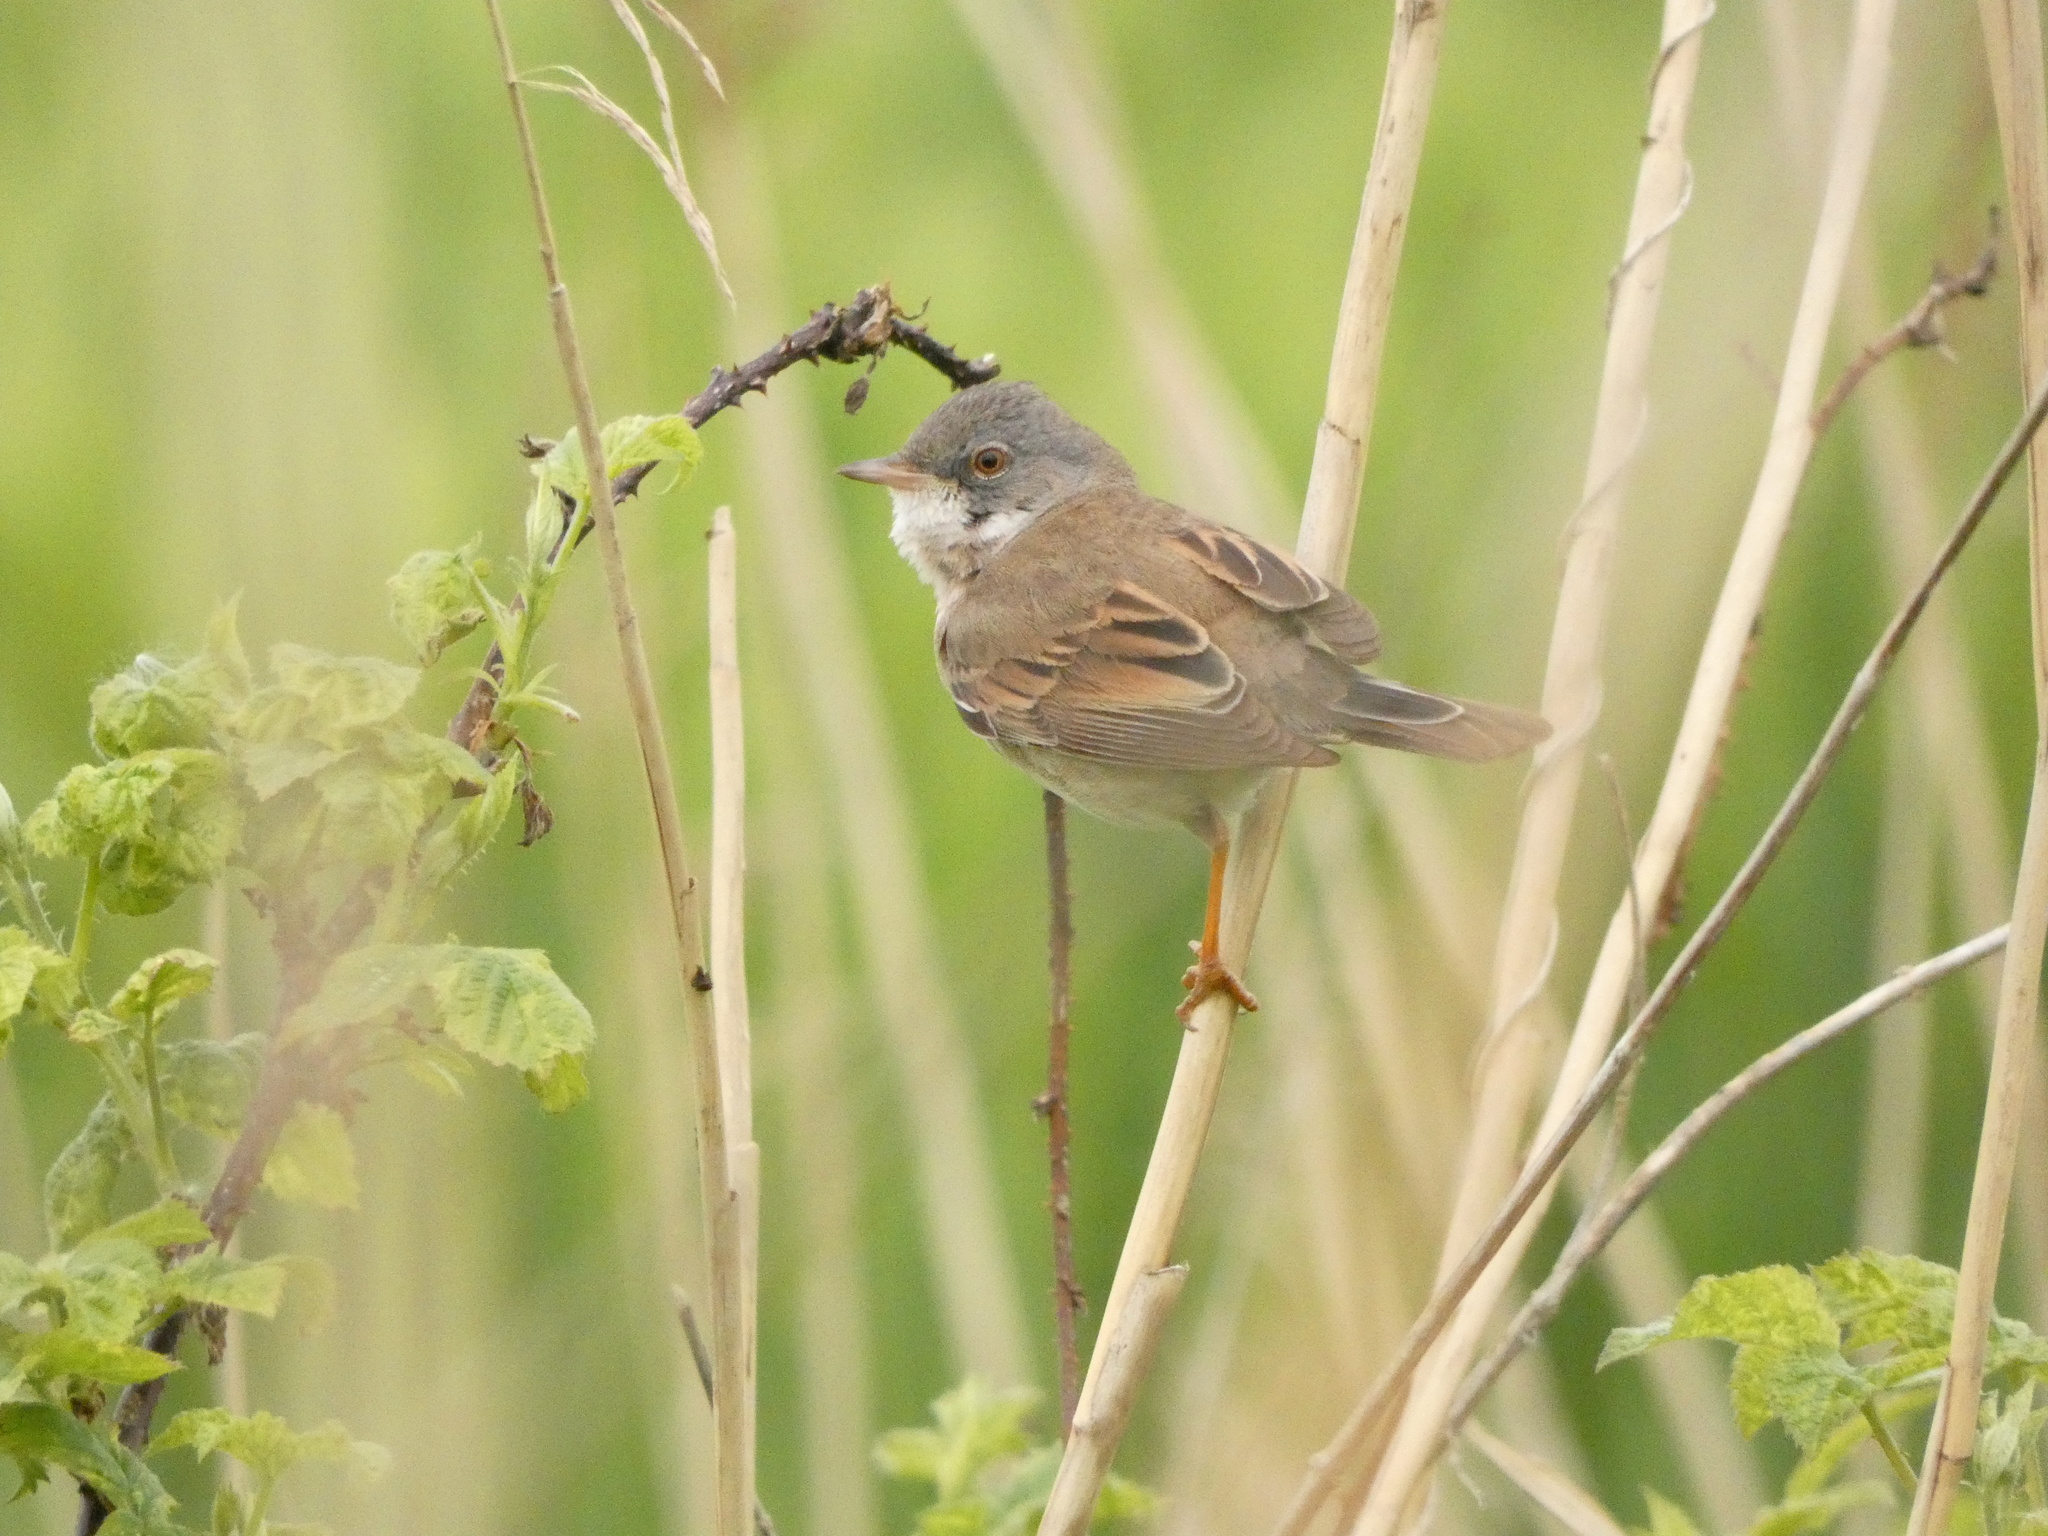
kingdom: Animalia
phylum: Chordata
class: Aves
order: Passeriformes
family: Sylviidae
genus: Sylvia
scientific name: Sylvia communis
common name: Common whitethroat
